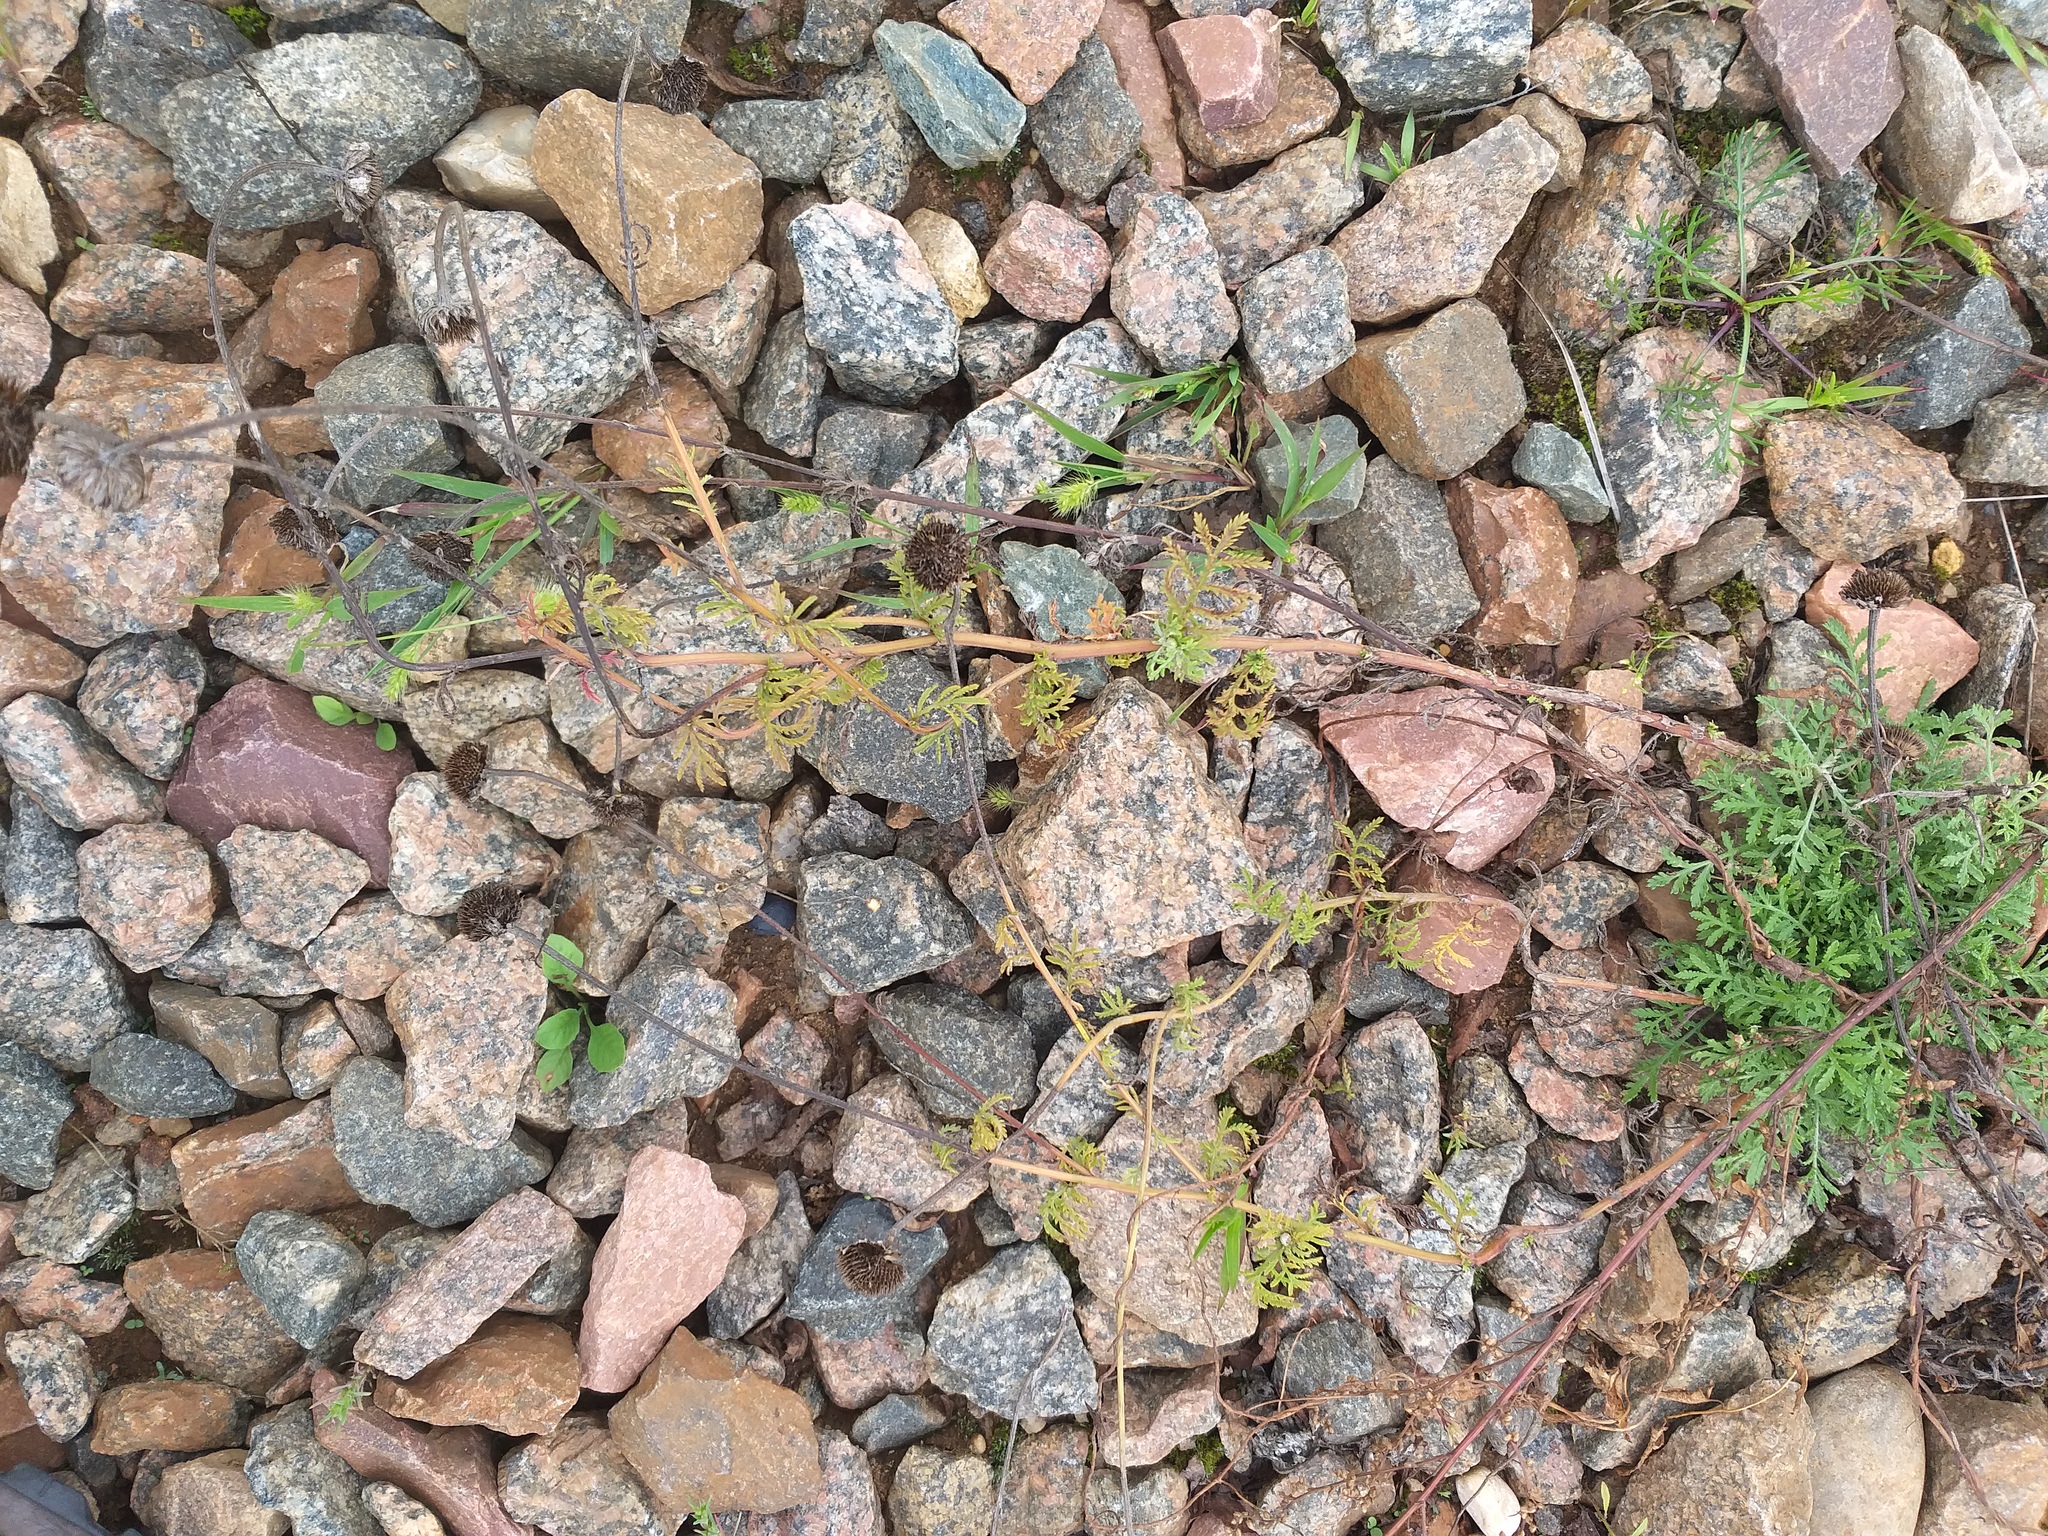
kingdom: Plantae
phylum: Tracheophyta
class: Magnoliopsida
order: Asterales
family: Asteraceae
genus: Cota
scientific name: Cota tinctoria
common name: Golden chamomile
